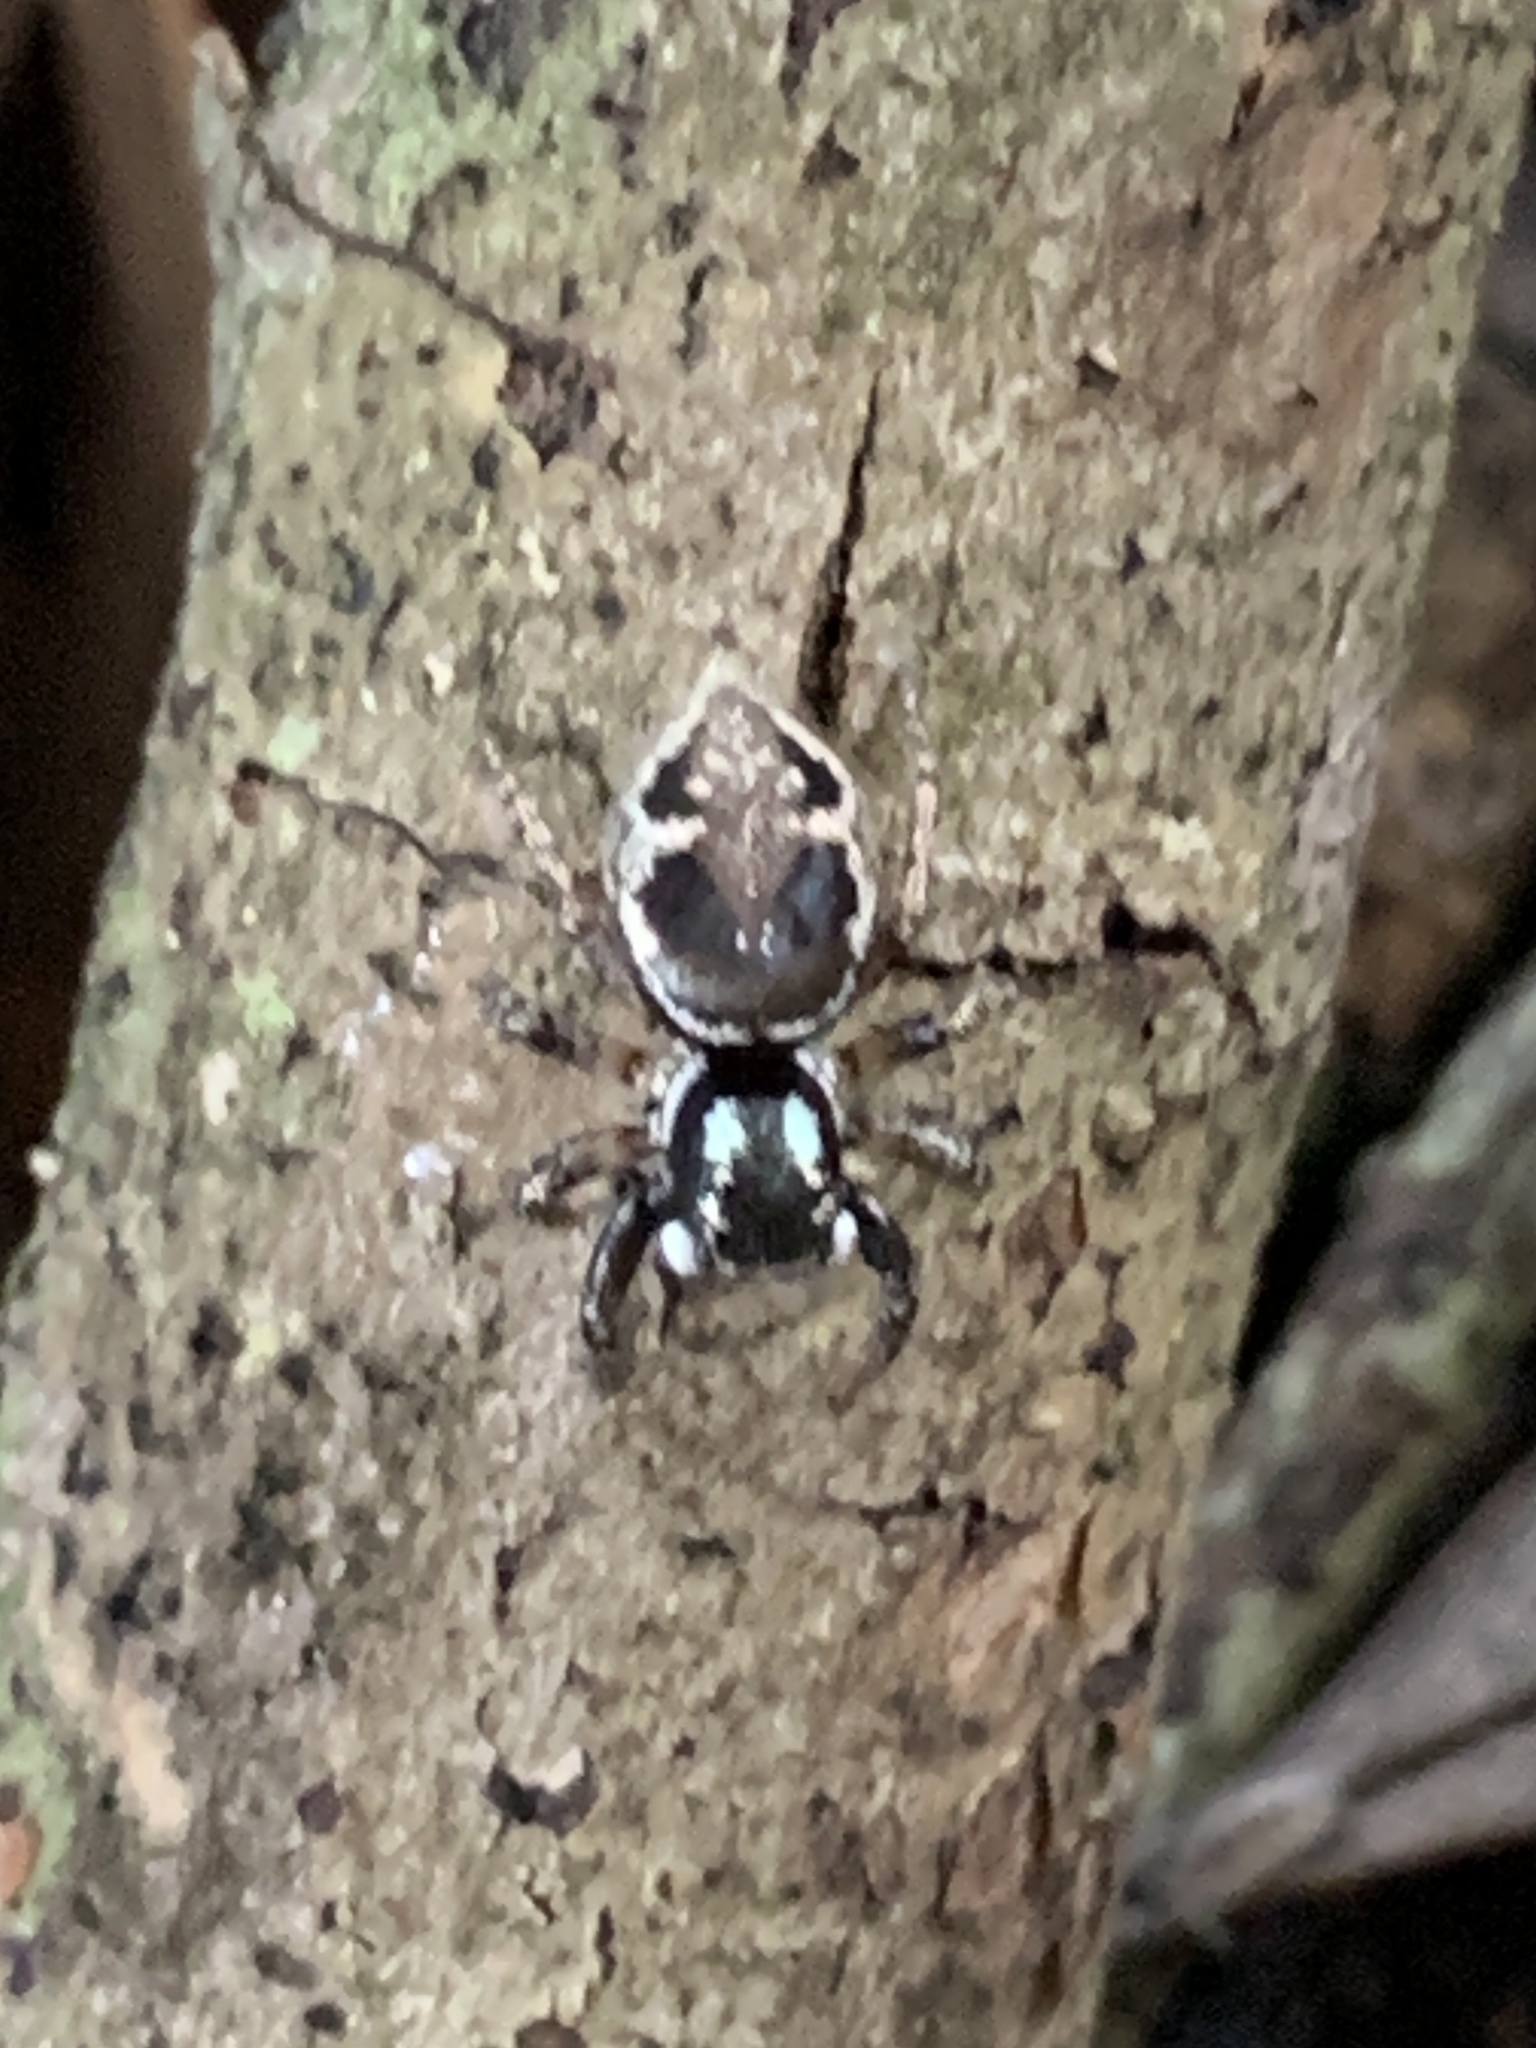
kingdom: Animalia
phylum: Arthropoda
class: Arachnida
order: Araneae
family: Salticidae
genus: Anasaitis
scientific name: Anasaitis canosa
